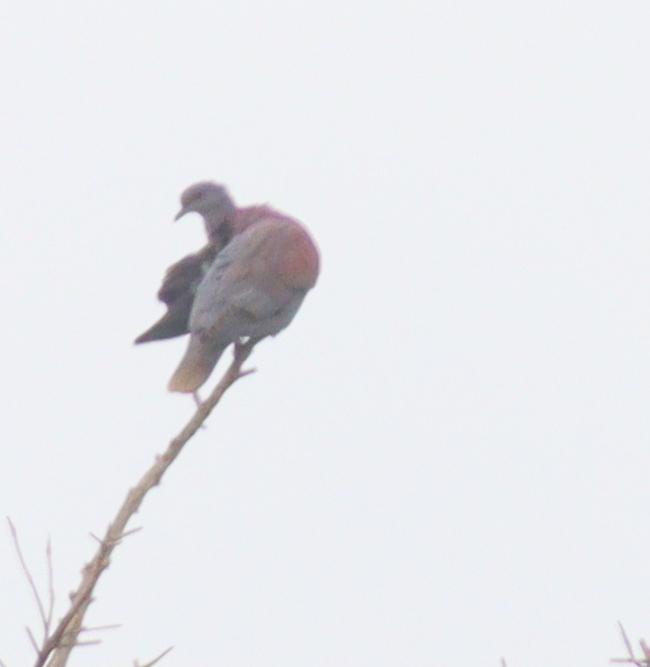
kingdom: Animalia
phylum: Chordata
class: Aves
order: Columbiformes
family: Columbidae
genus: Patagioenas
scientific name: Patagioenas cayennensis
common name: Pale-vented pigeon
